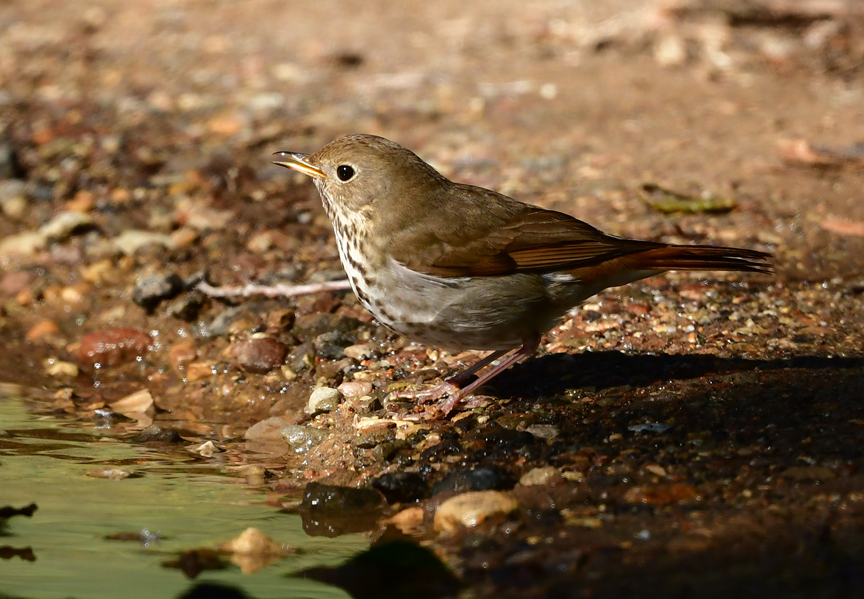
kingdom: Animalia
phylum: Chordata
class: Aves
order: Passeriformes
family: Turdidae
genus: Catharus
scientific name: Catharus guttatus
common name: Hermit thrush
